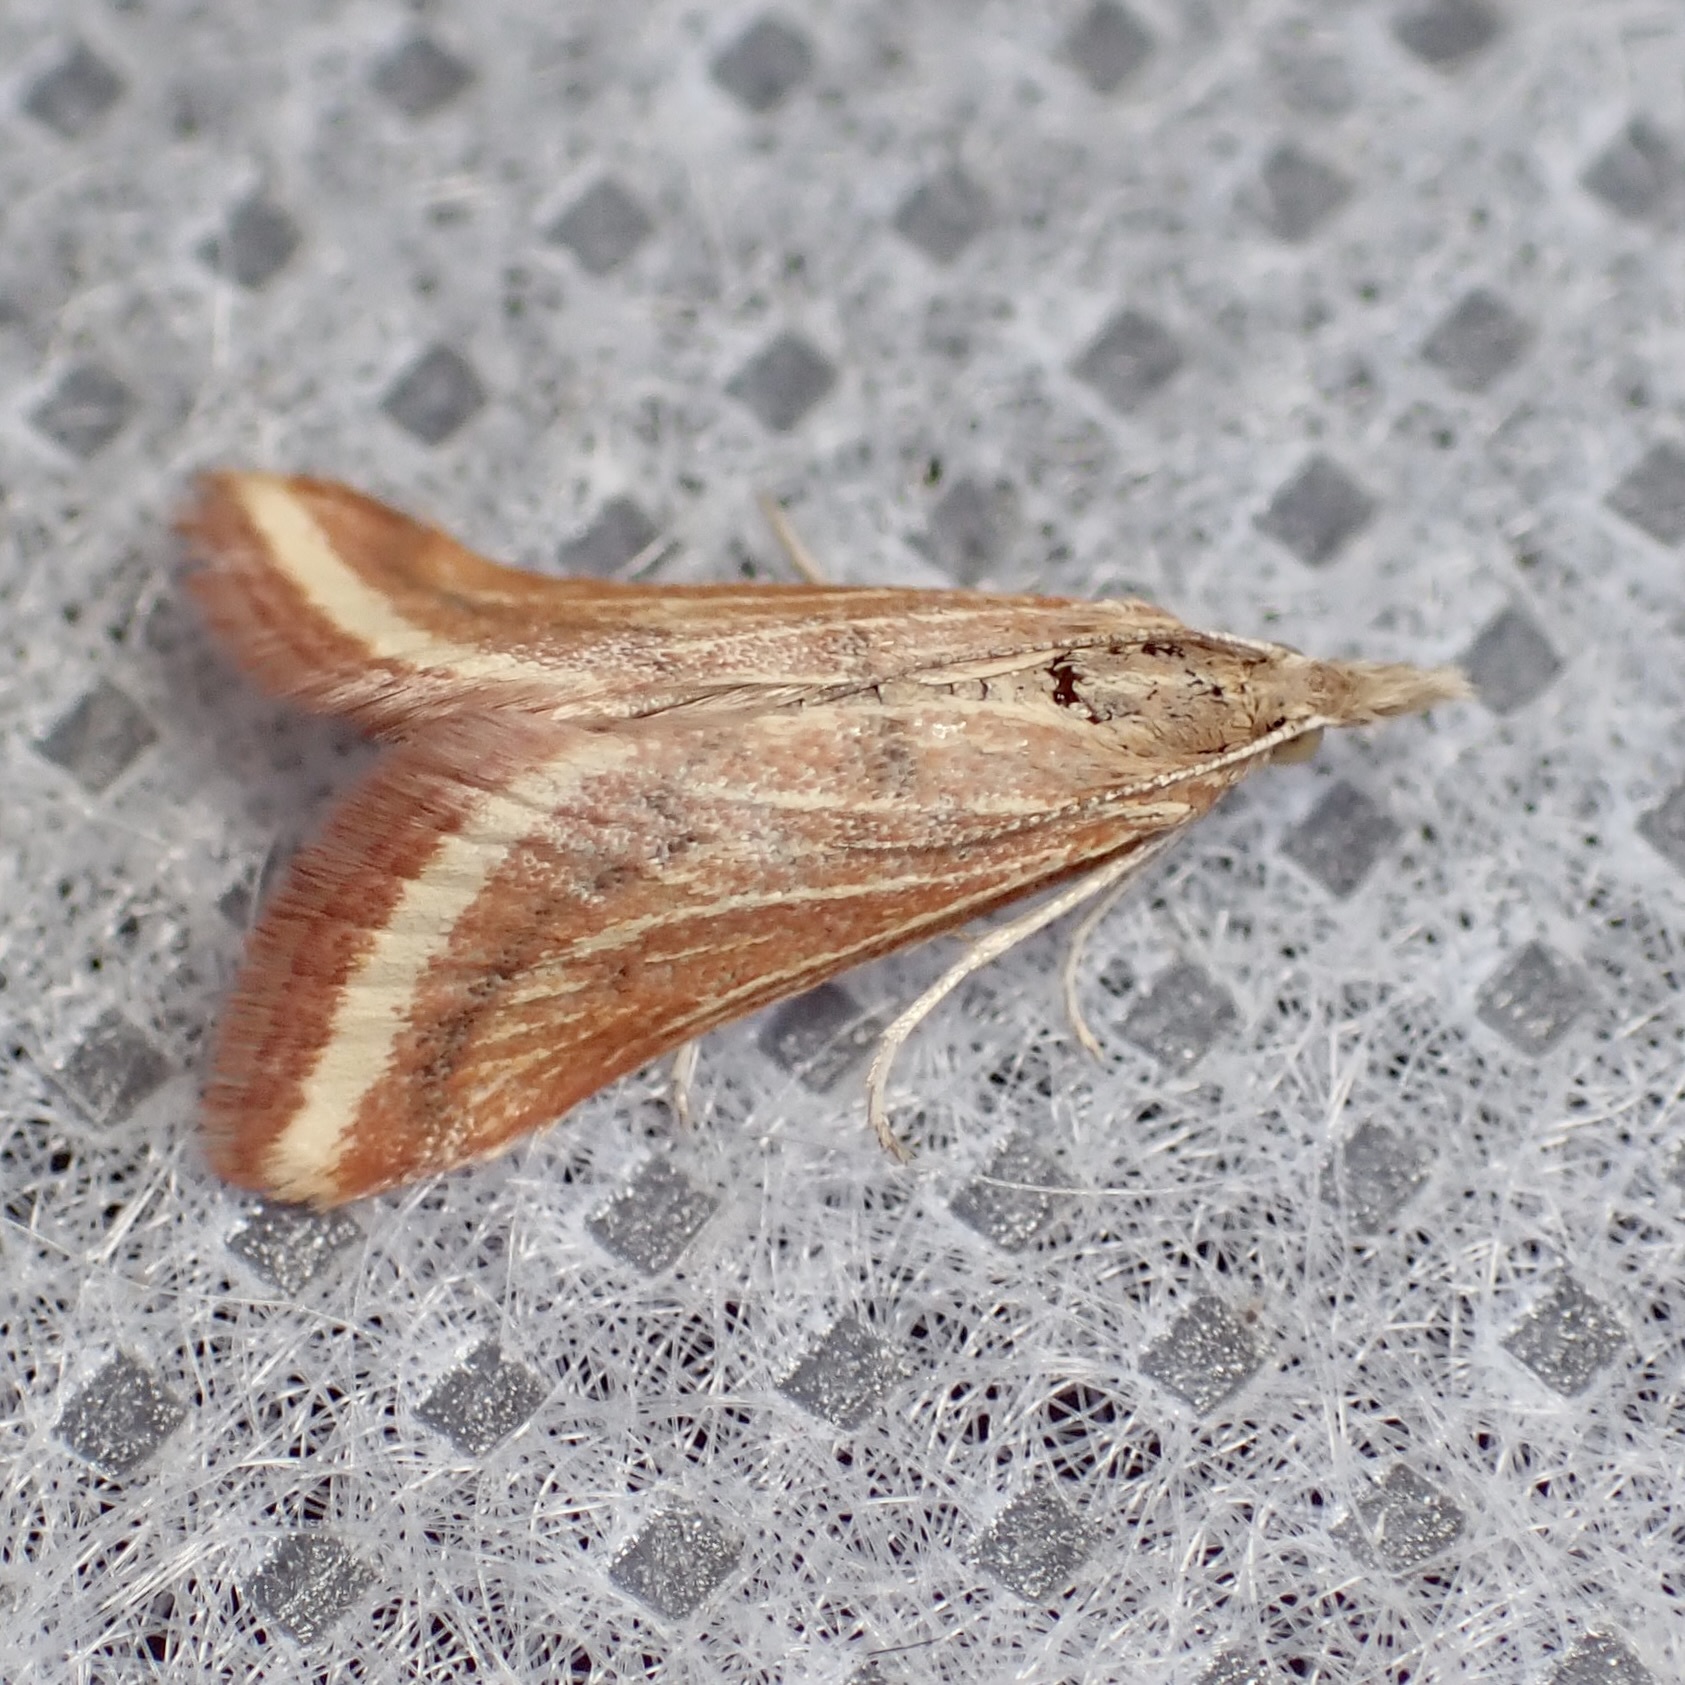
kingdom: Animalia
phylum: Arthropoda
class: Insecta
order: Lepidoptera
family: Crambidae
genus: Microtheoris
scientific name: Microtheoris ophionalis
